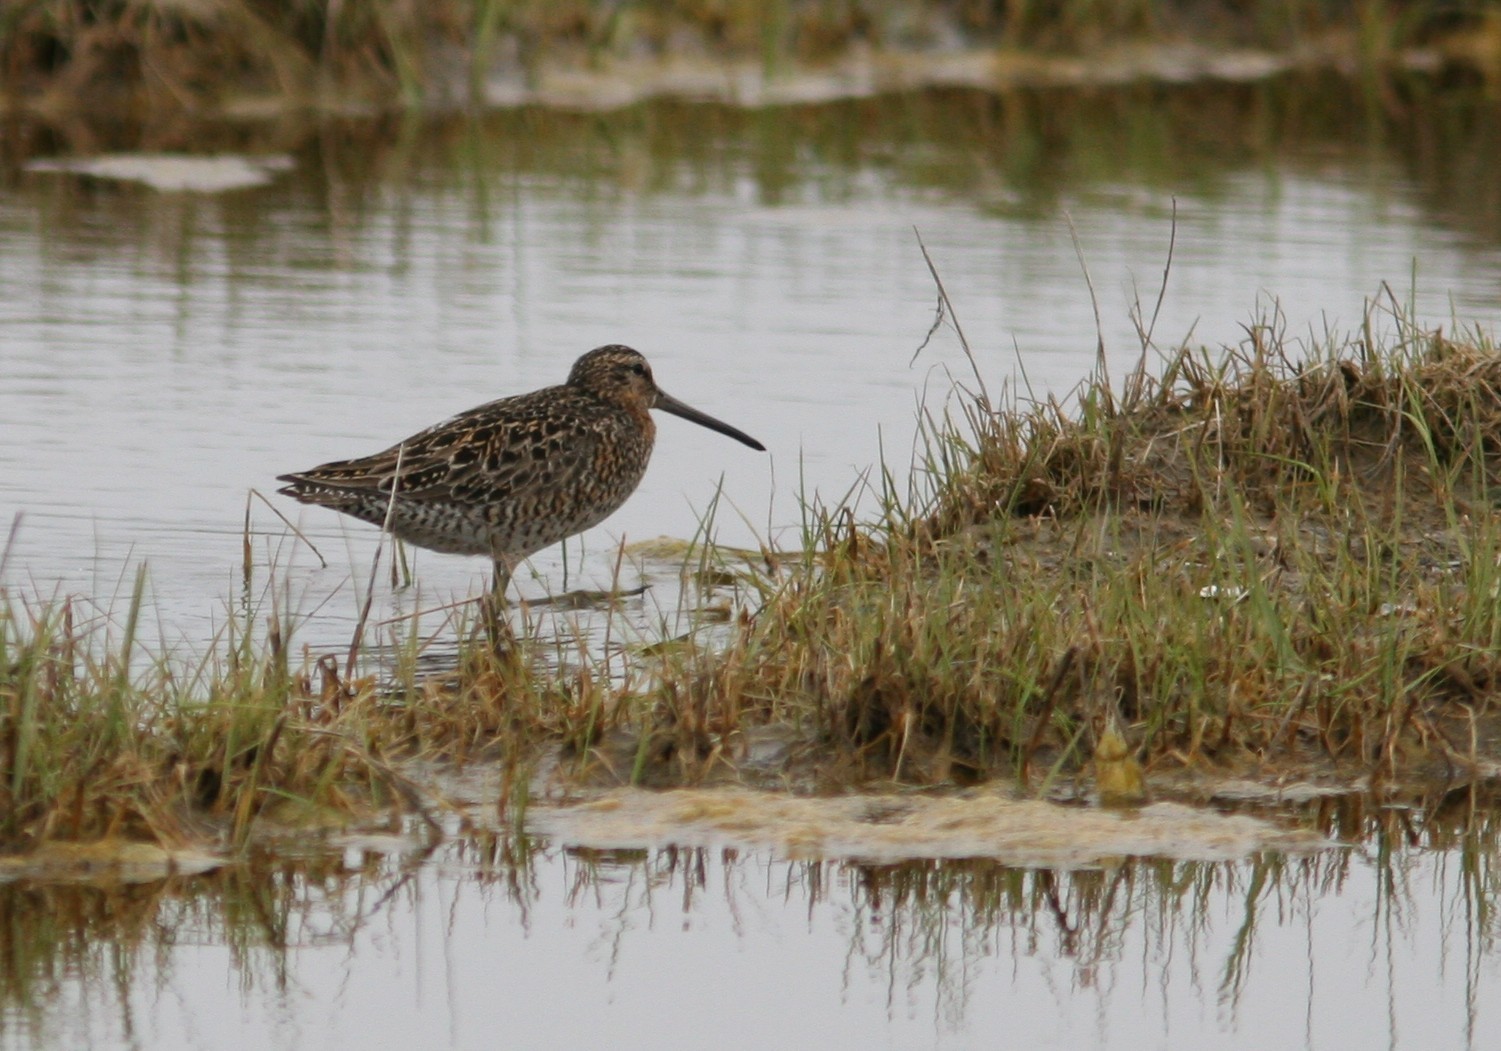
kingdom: Animalia
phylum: Chordata
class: Aves
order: Charadriiformes
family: Scolopacidae
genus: Limnodromus
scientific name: Limnodromus griseus
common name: Short-billed dowitcher
